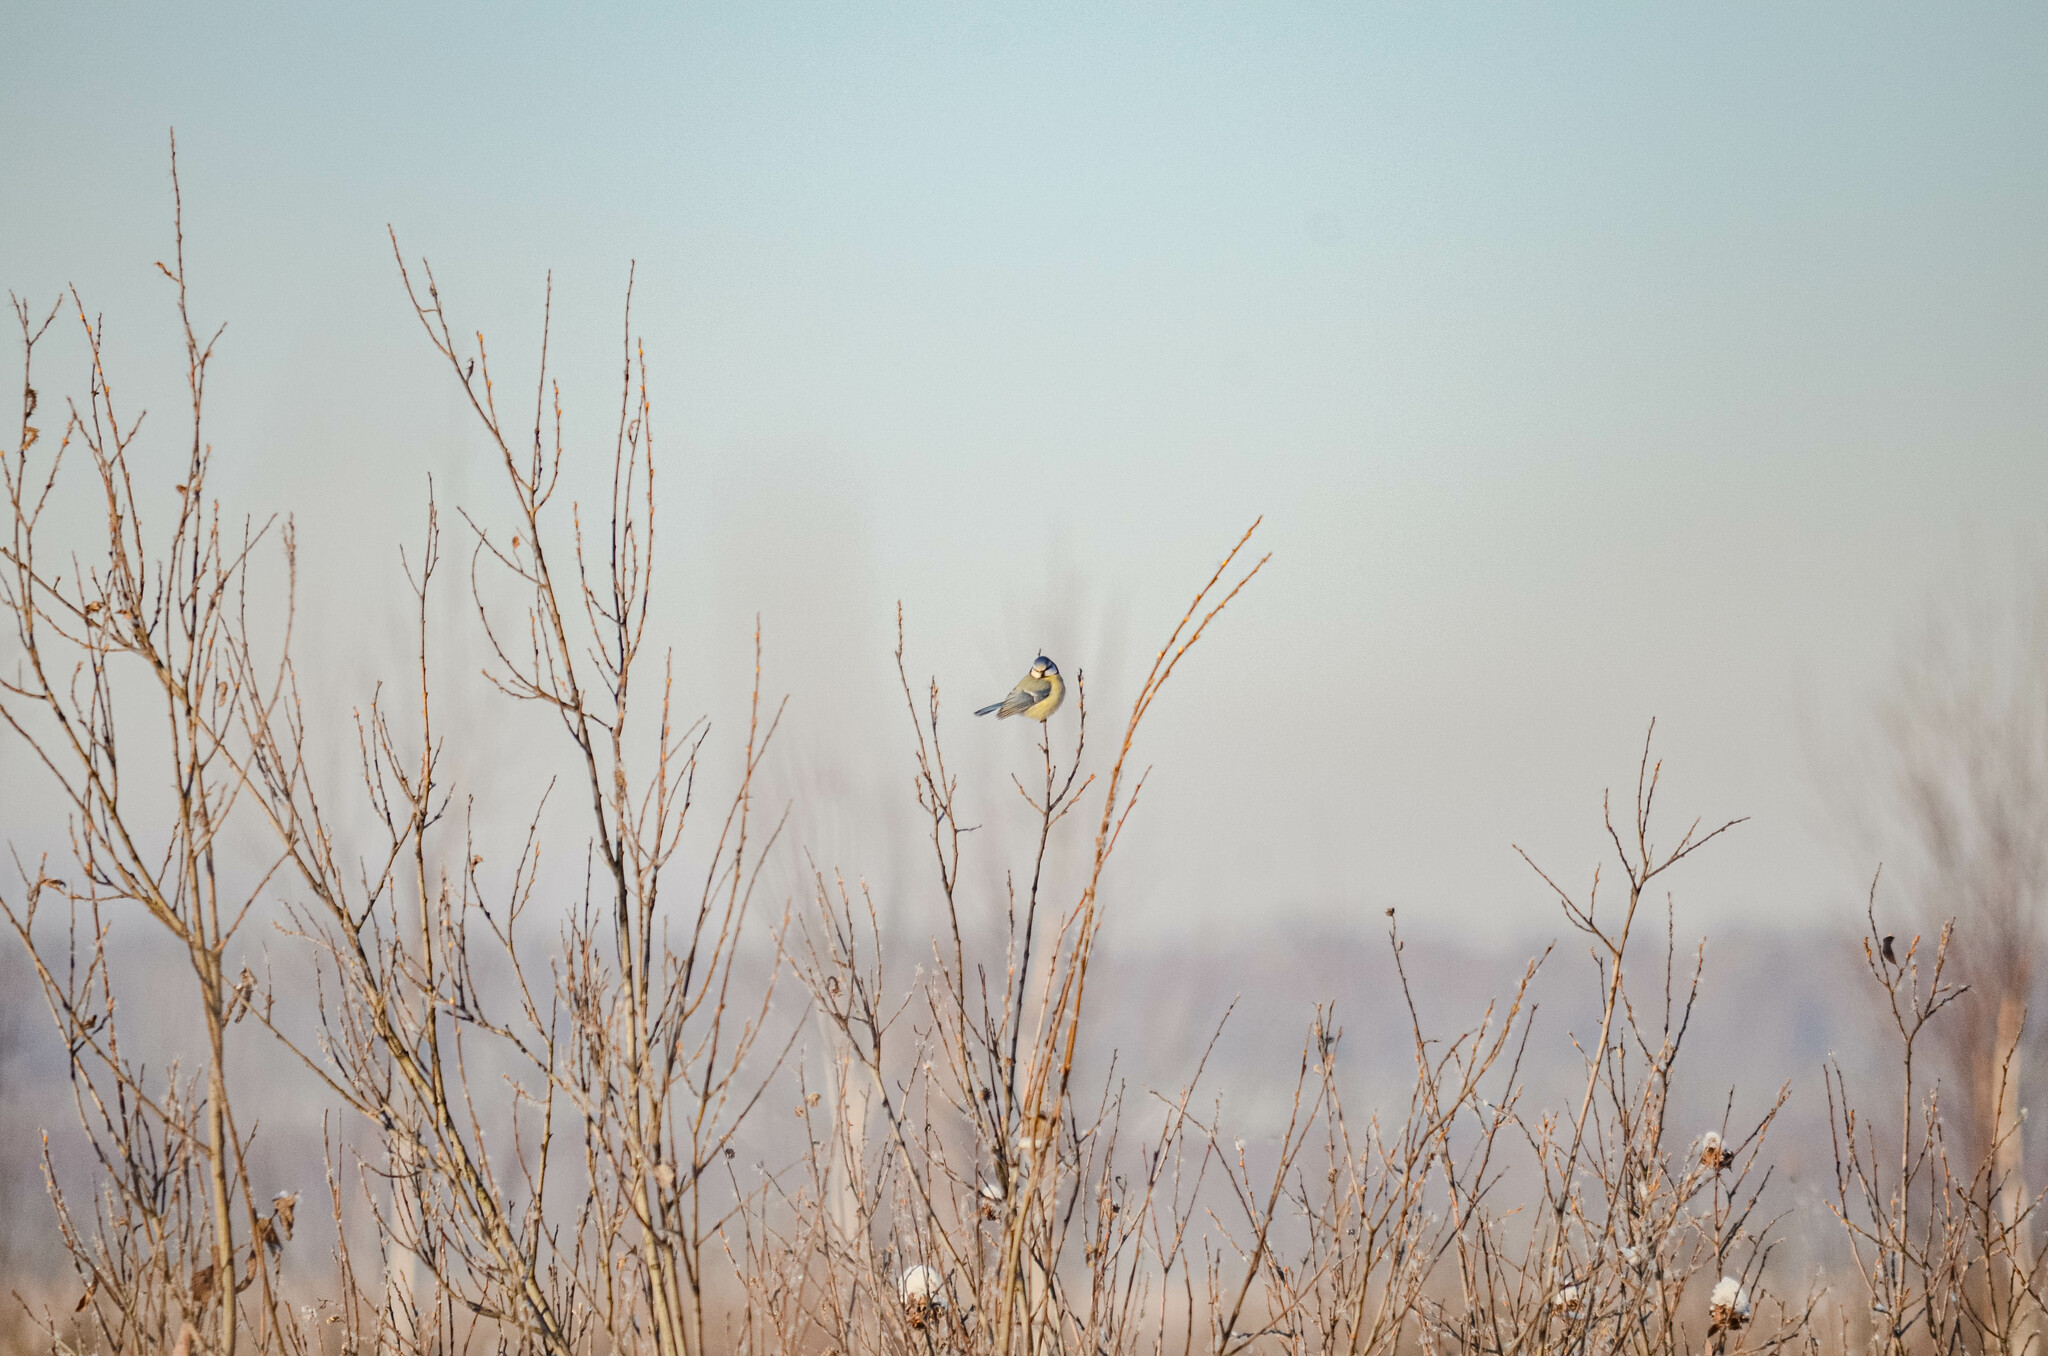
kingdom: Animalia
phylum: Chordata
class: Aves
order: Passeriformes
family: Paridae
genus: Cyanistes
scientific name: Cyanistes caeruleus
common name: Eurasian blue tit
